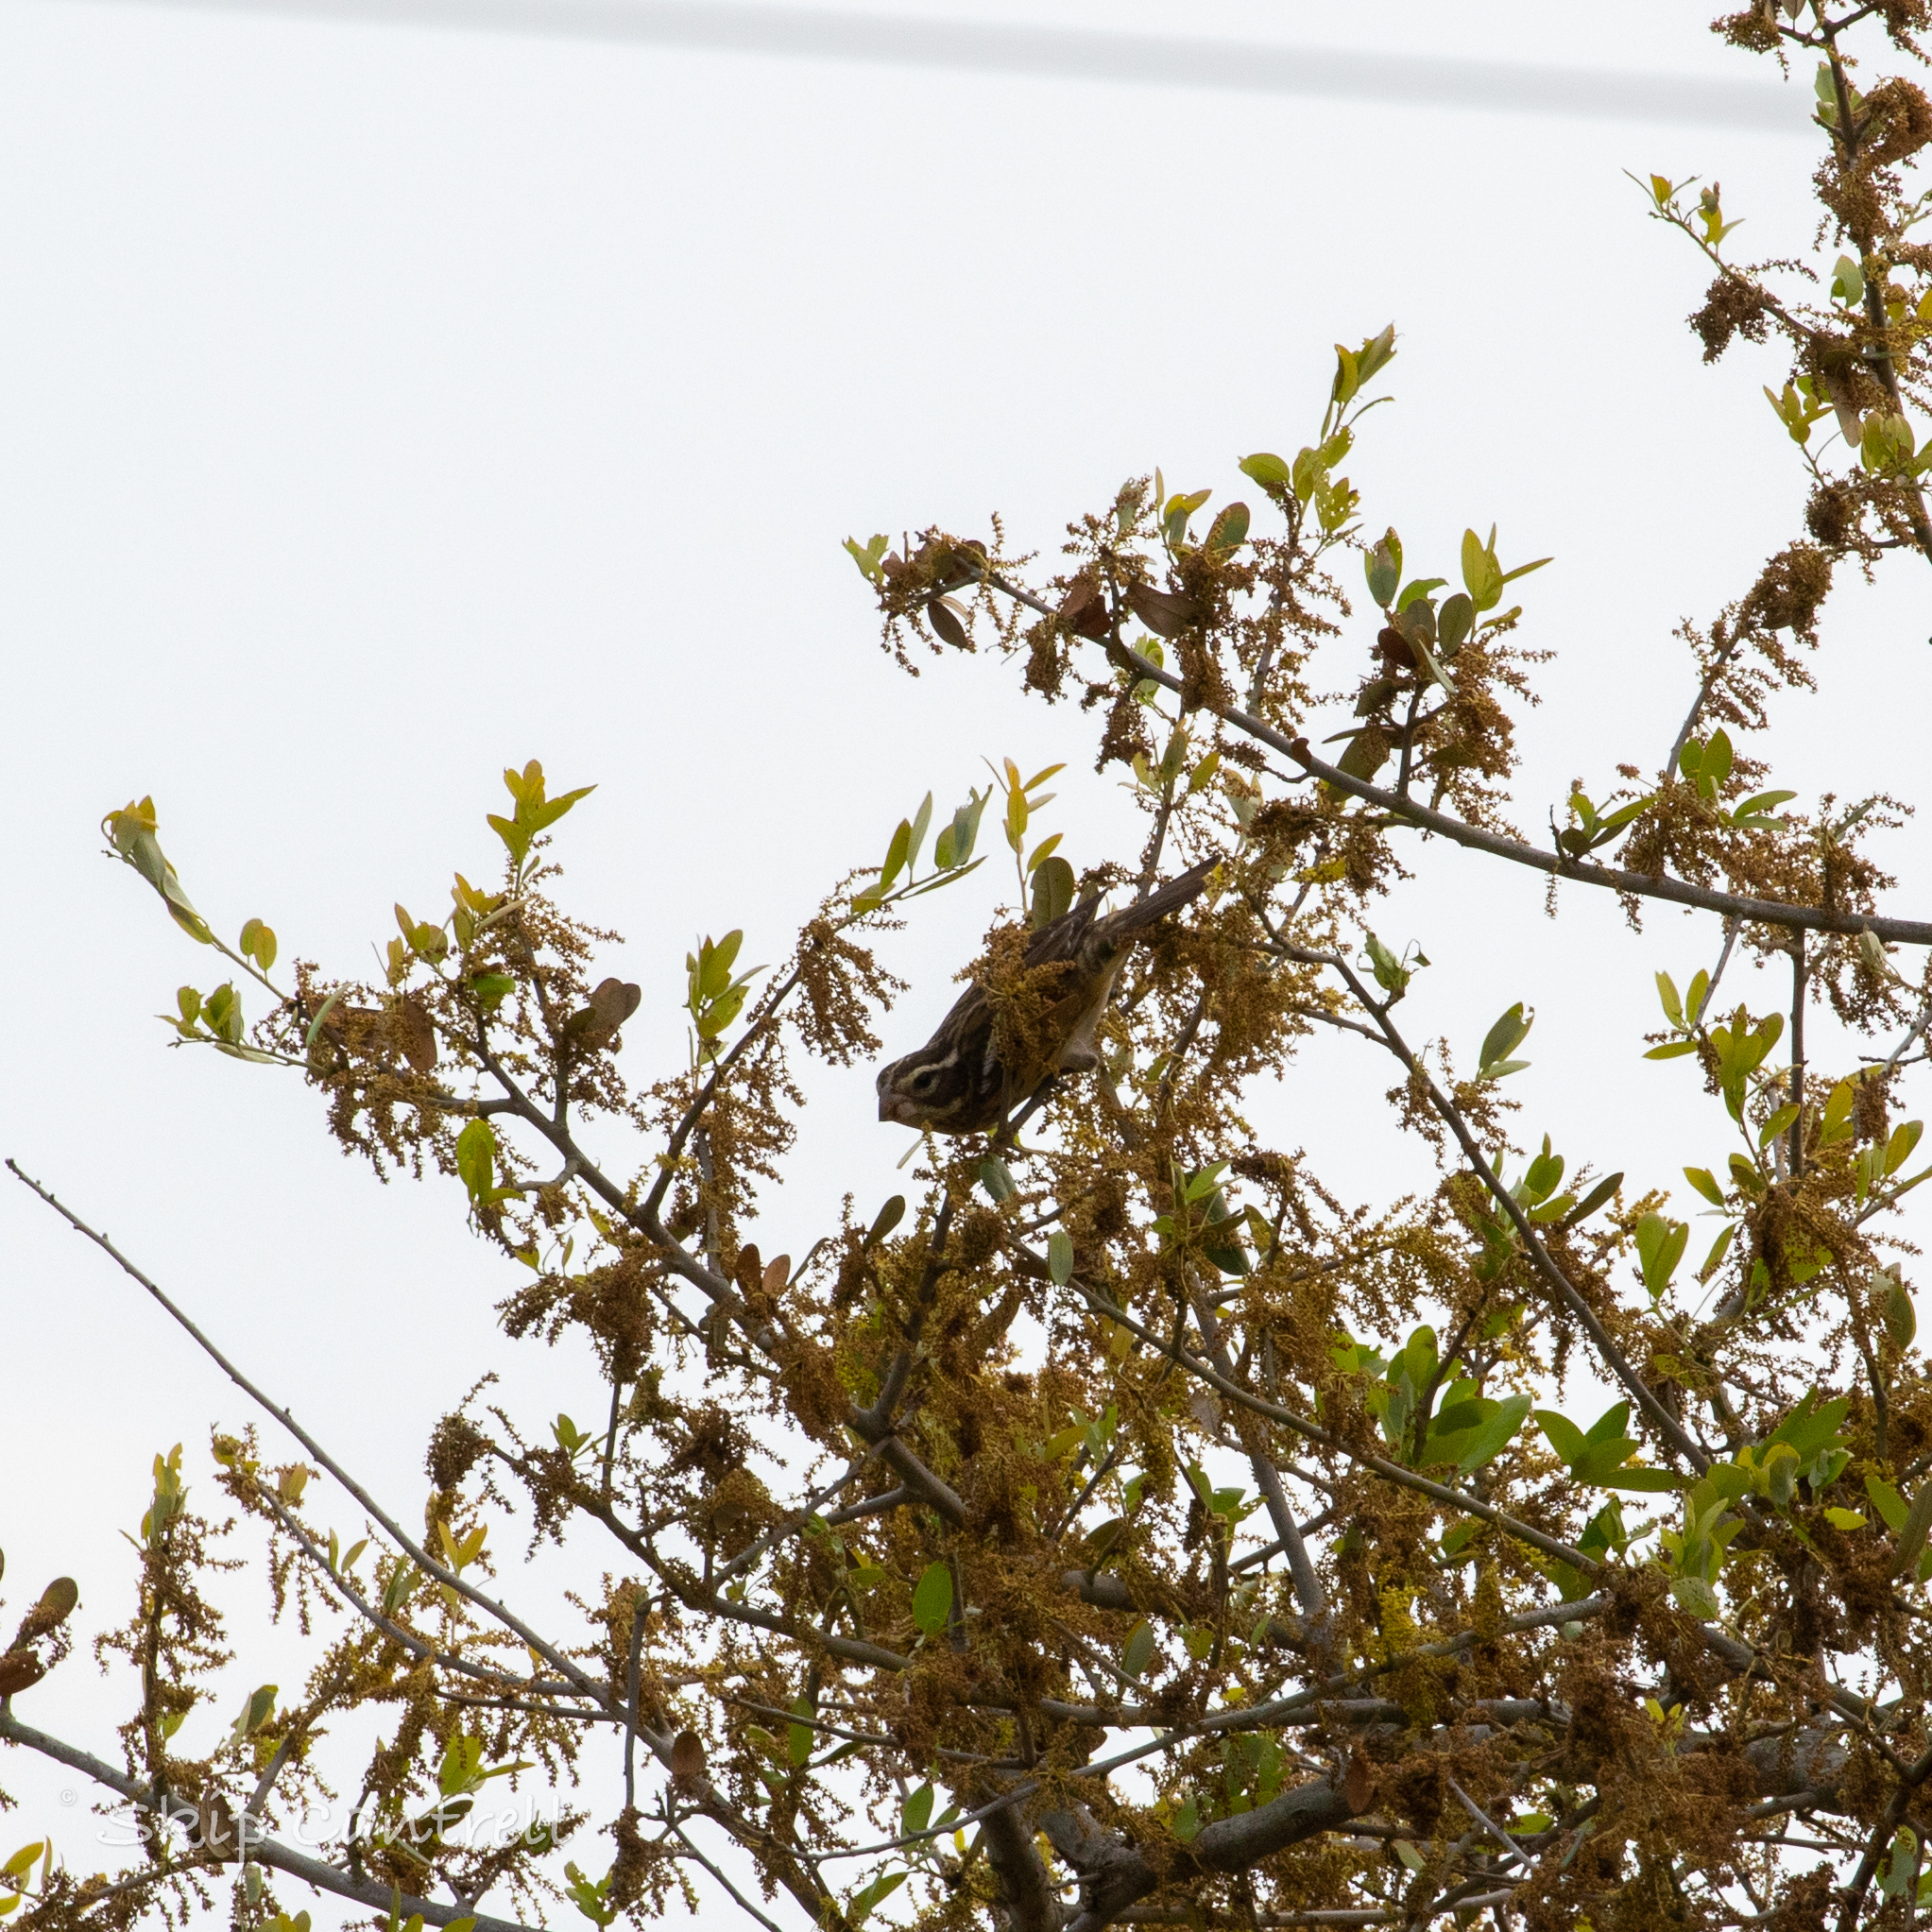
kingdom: Animalia
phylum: Chordata
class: Aves
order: Passeriformes
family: Cardinalidae
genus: Pheucticus
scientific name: Pheucticus ludovicianus
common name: Rose-breasted grosbeak
